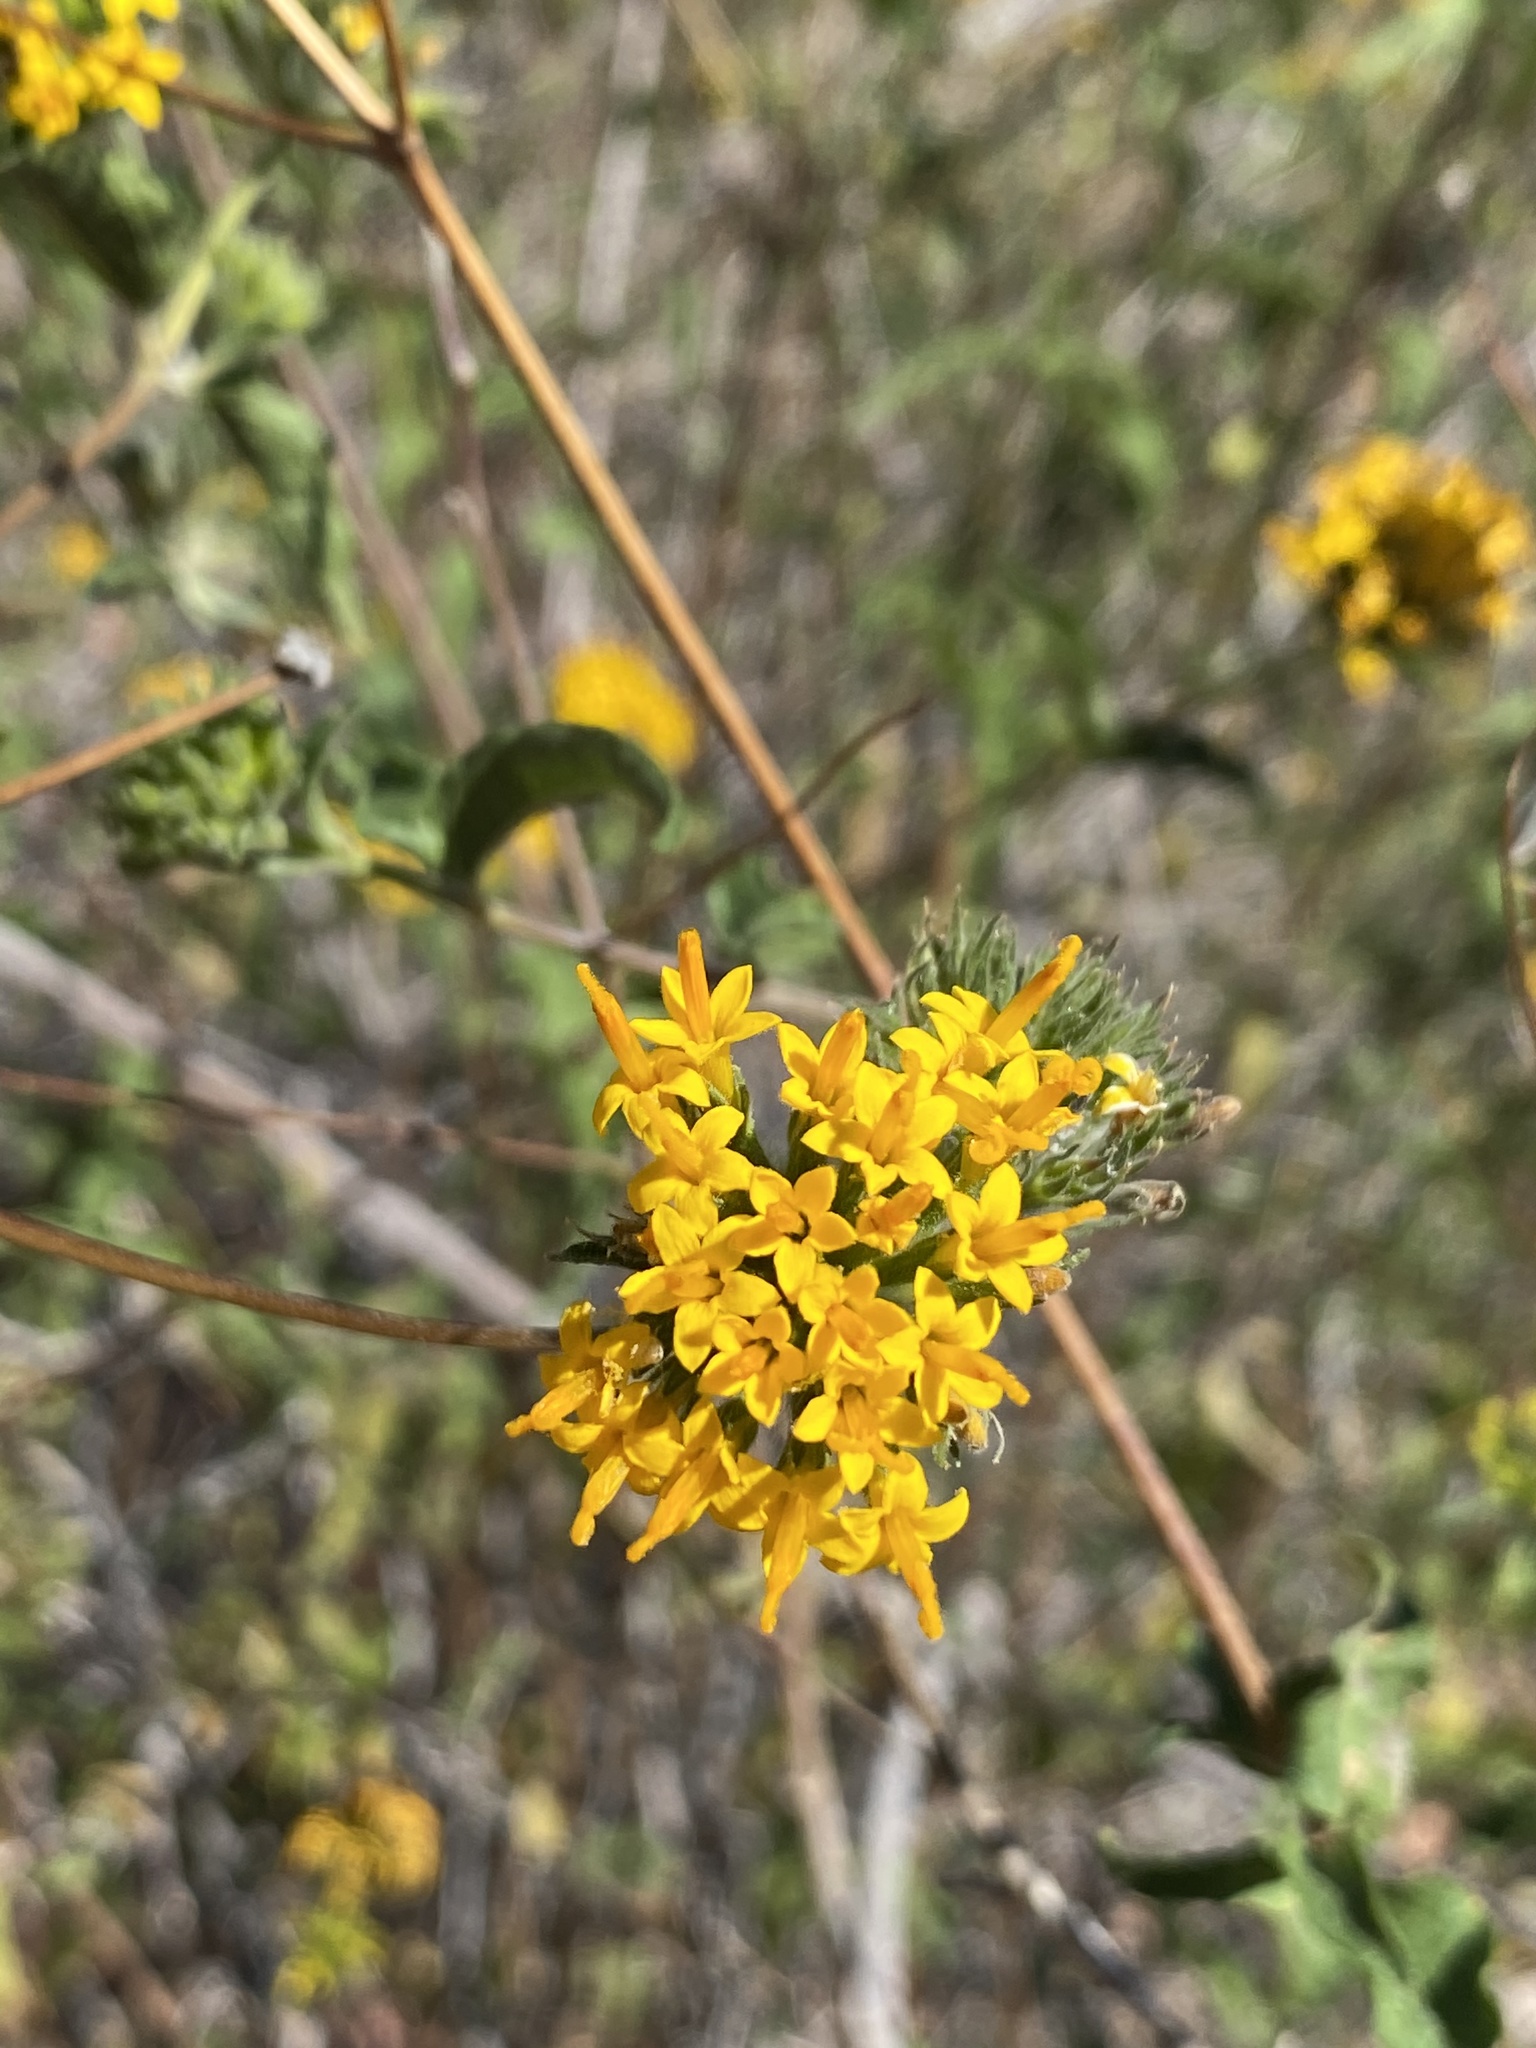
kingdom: Plantae
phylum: Tracheophyta
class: Magnoliopsida
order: Asterales
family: Asteraceae
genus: Lagascea
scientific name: Lagascea decipiens
